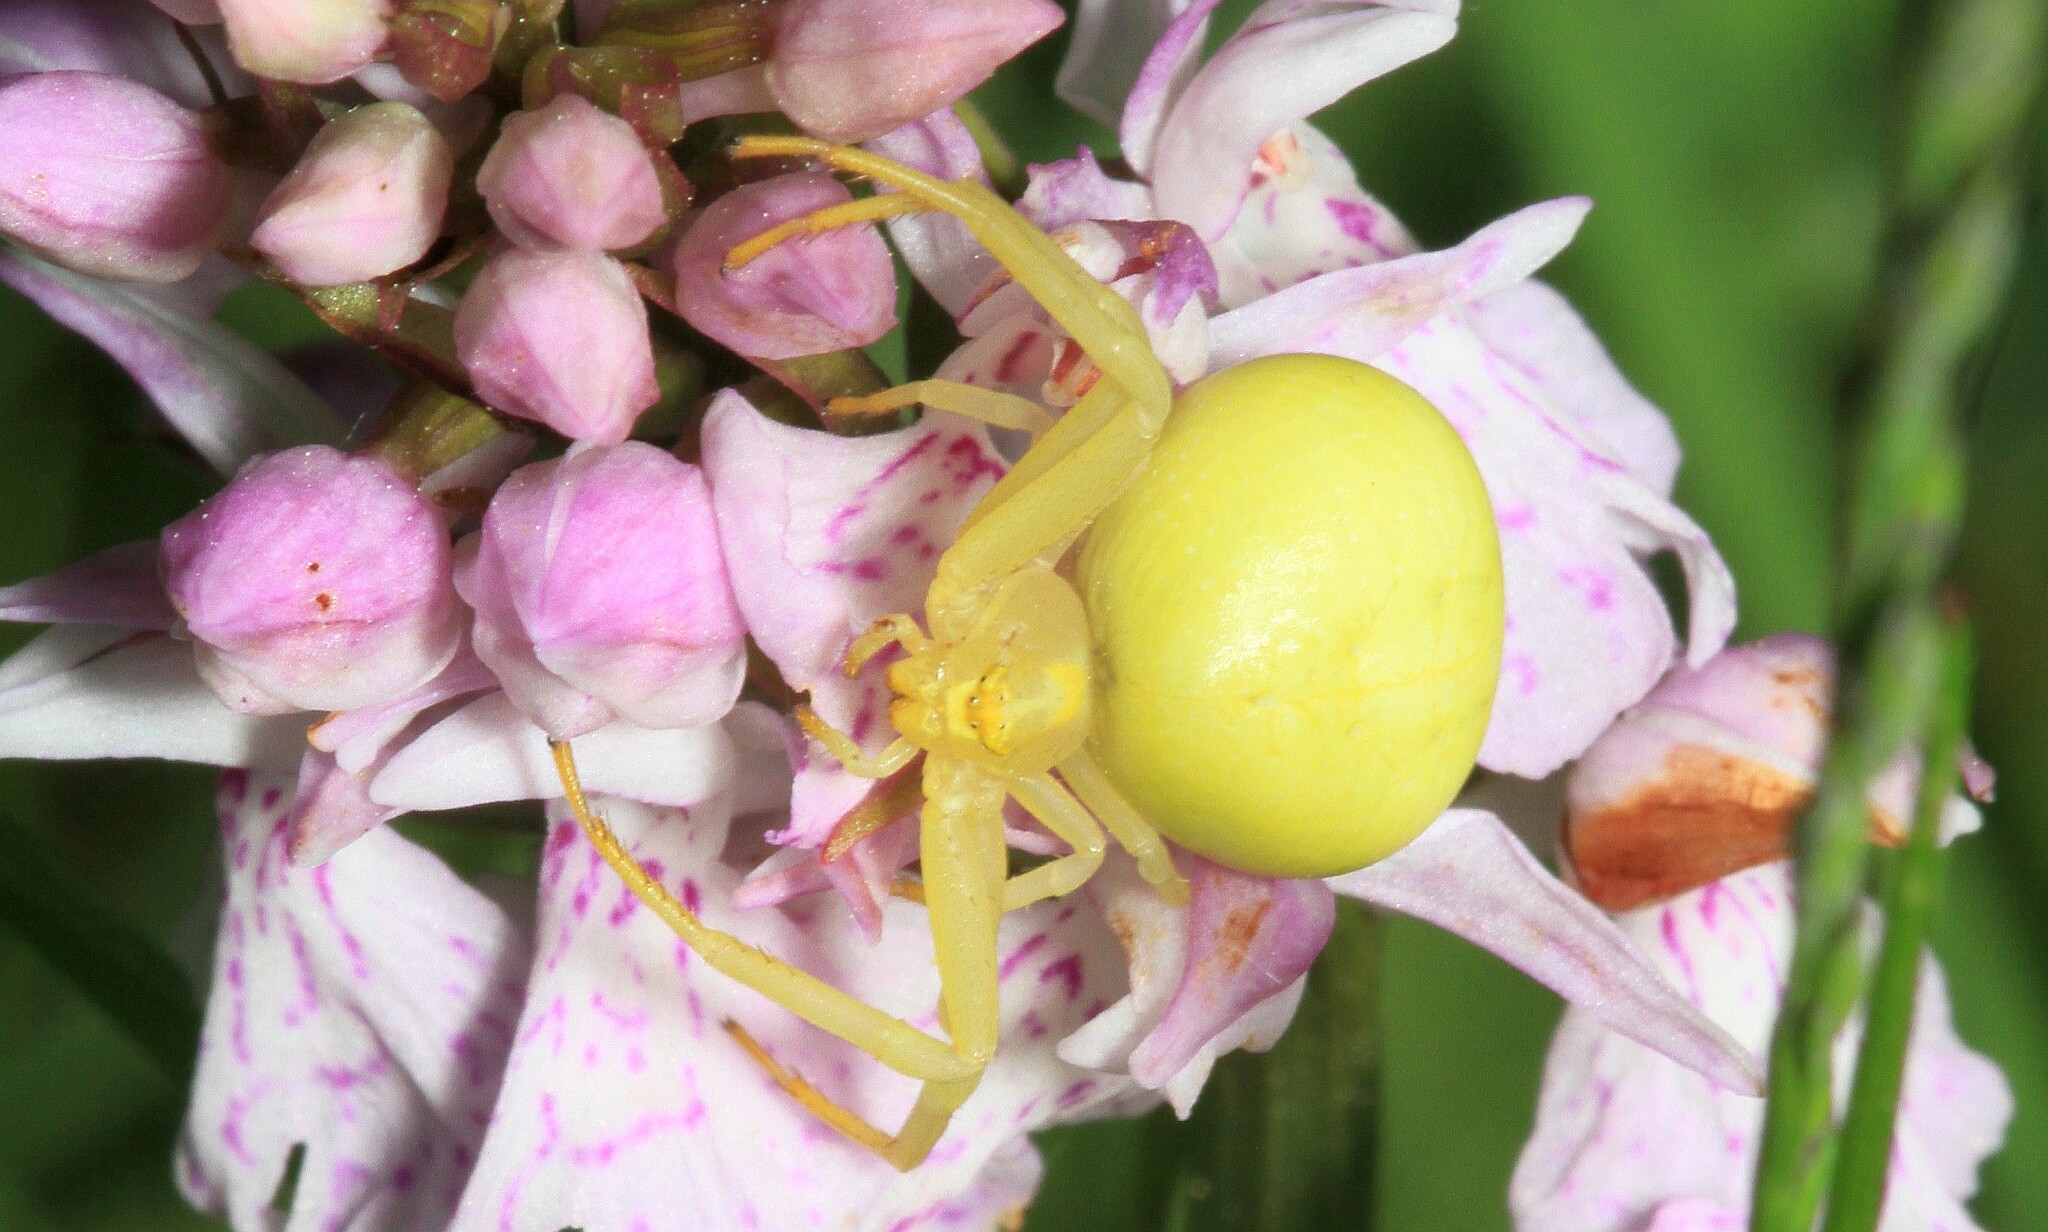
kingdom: Animalia
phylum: Arthropoda
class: Arachnida
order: Araneae
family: Thomisidae
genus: Misumena
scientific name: Misumena vatia
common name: Goldenrod crab spider
